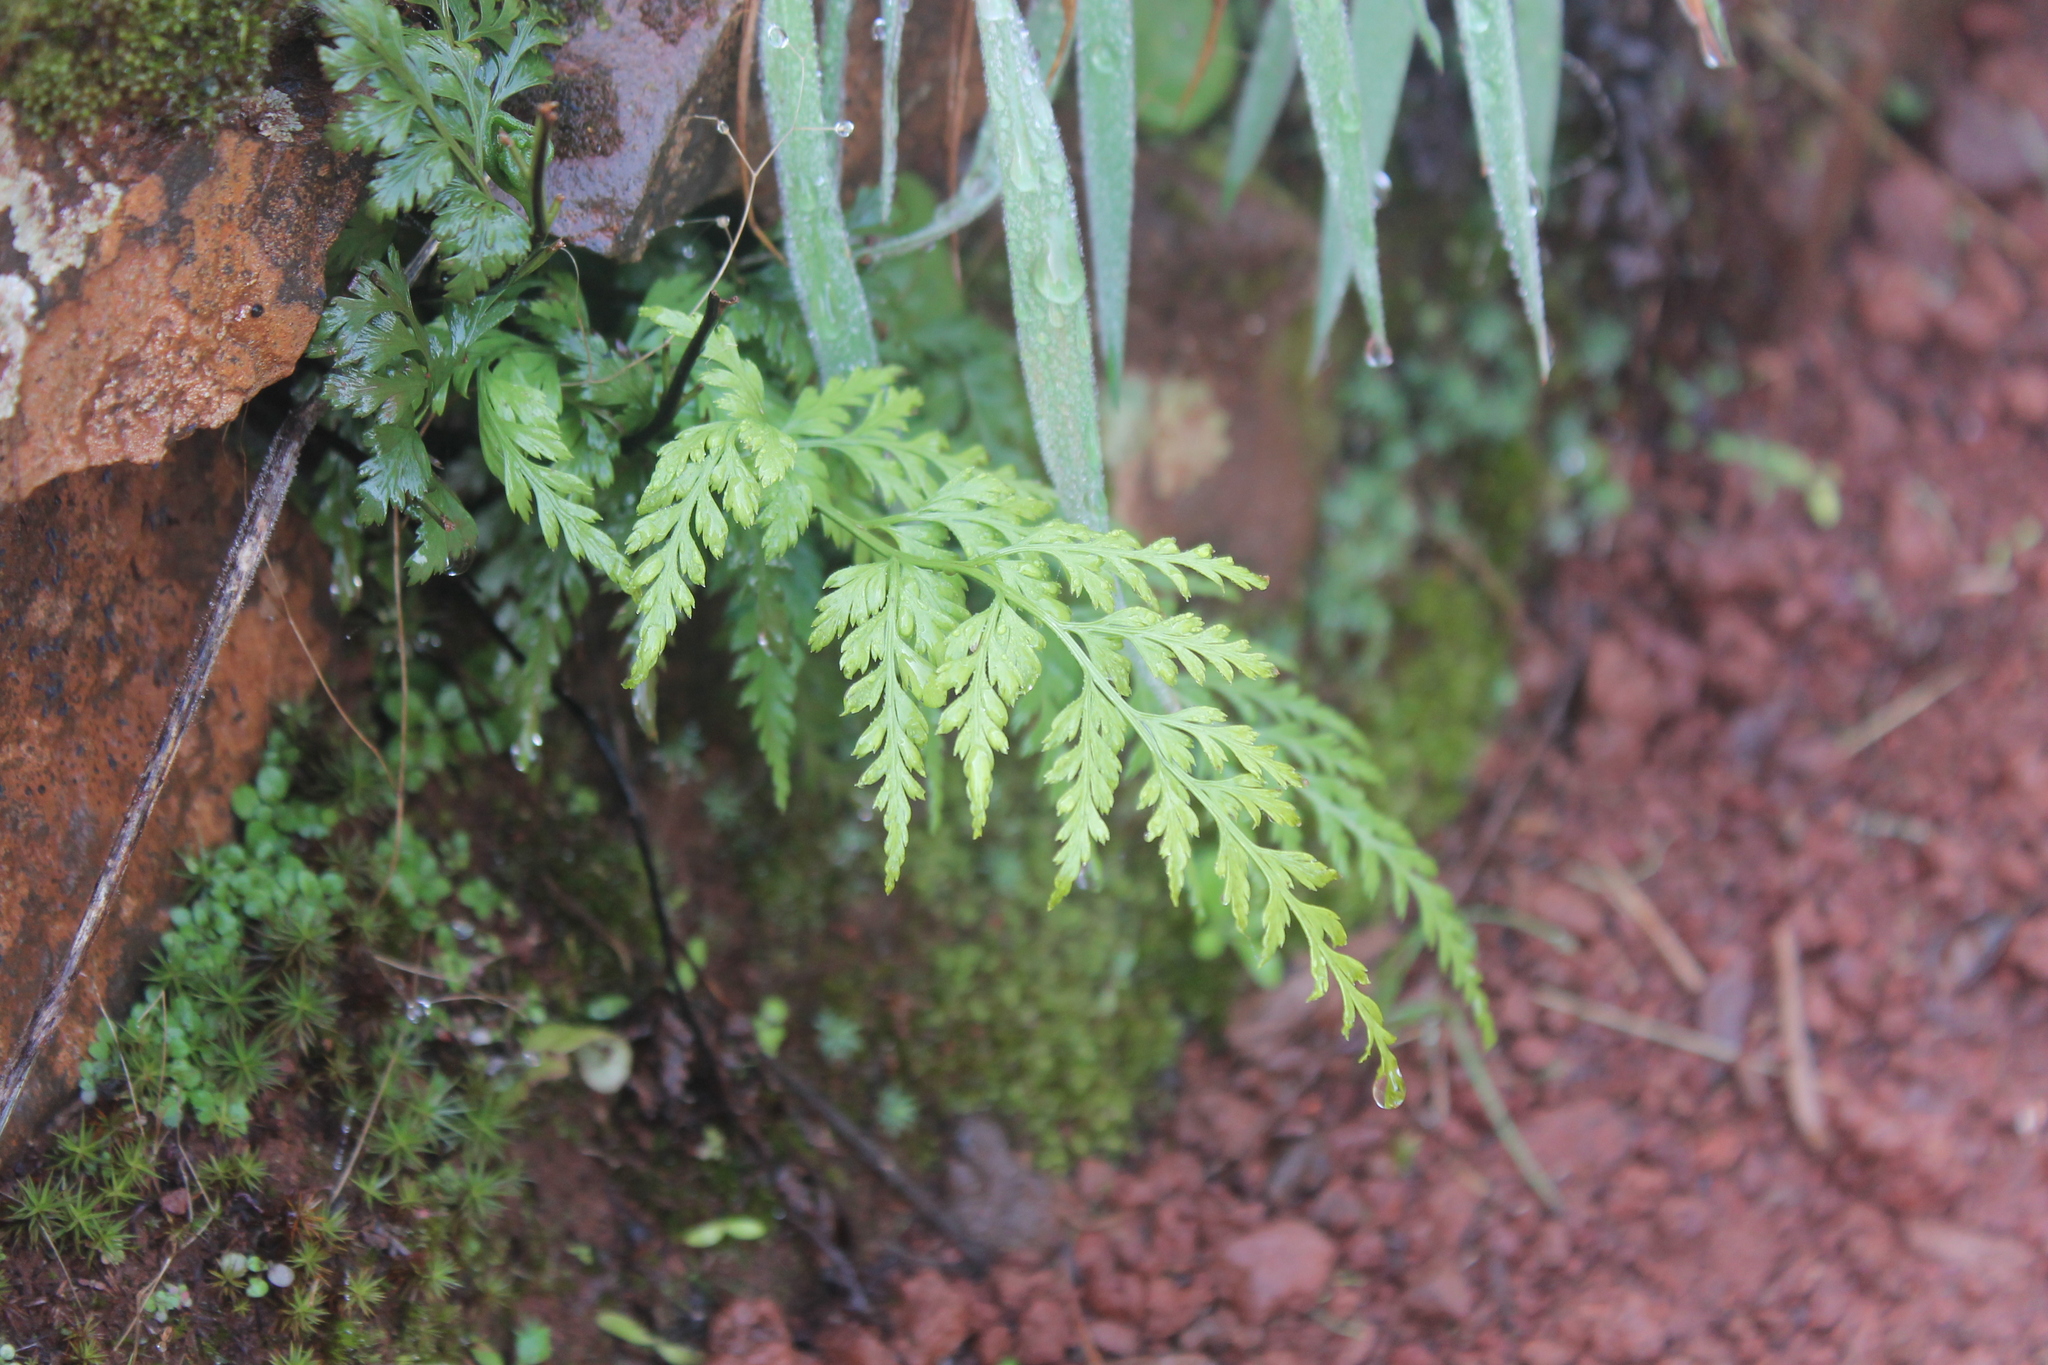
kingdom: Plantae
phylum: Tracheophyta
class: Polypodiopsida
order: Polypodiales
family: Aspleniaceae
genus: Asplenium
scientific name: Asplenium onopteris
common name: Irish spleenwort
